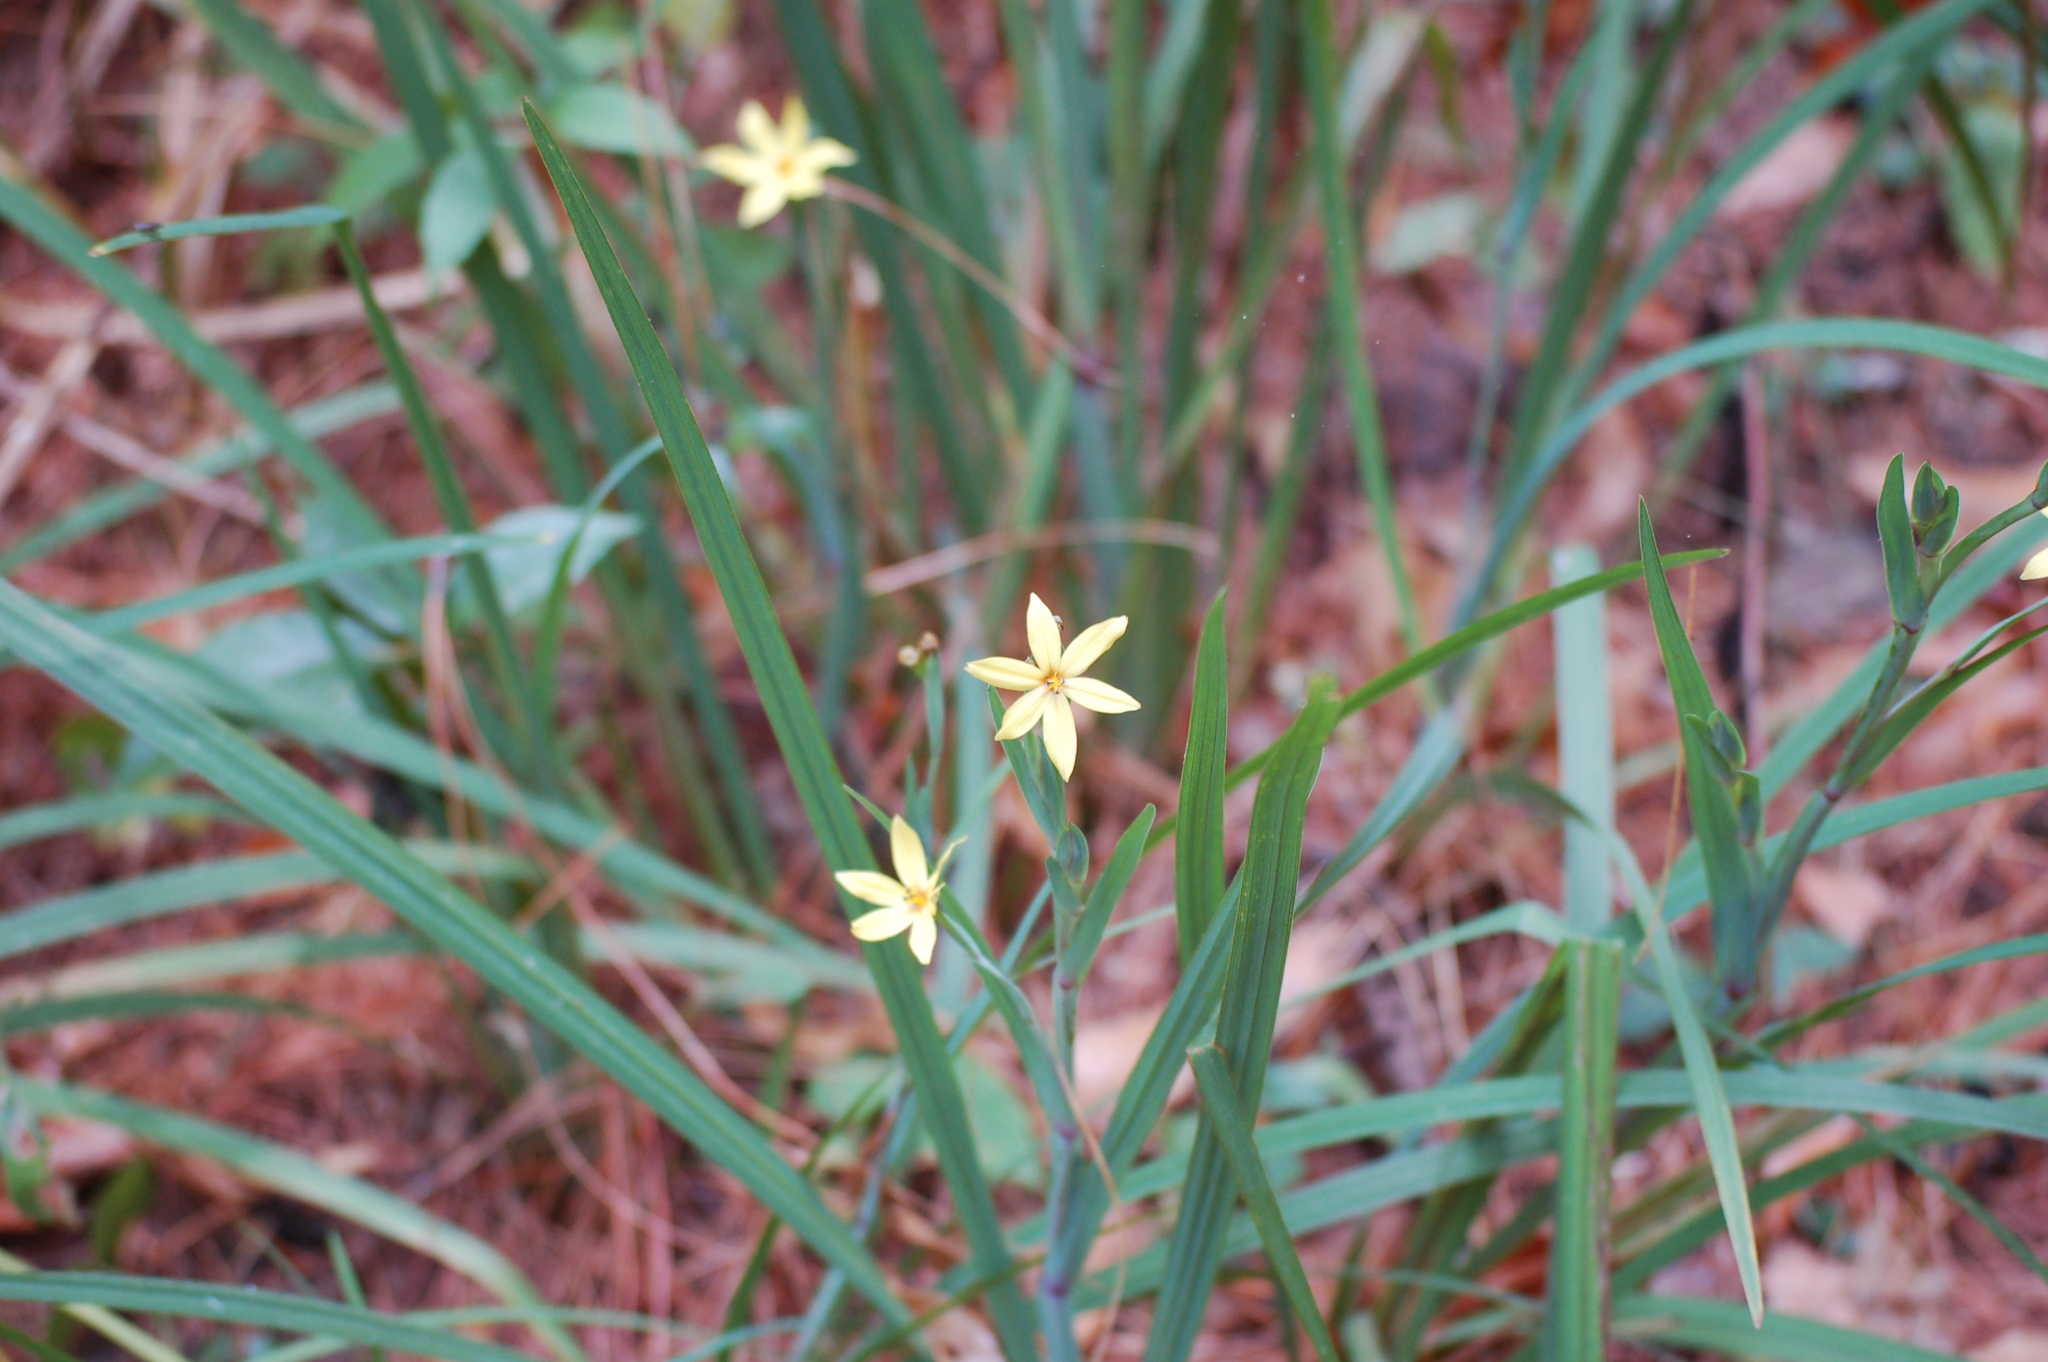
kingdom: Plantae
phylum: Tracheophyta
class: Liliopsida
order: Asparagales
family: Iridaceae
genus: Sisyrinchium
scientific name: Sisyrinchium angustissimum
